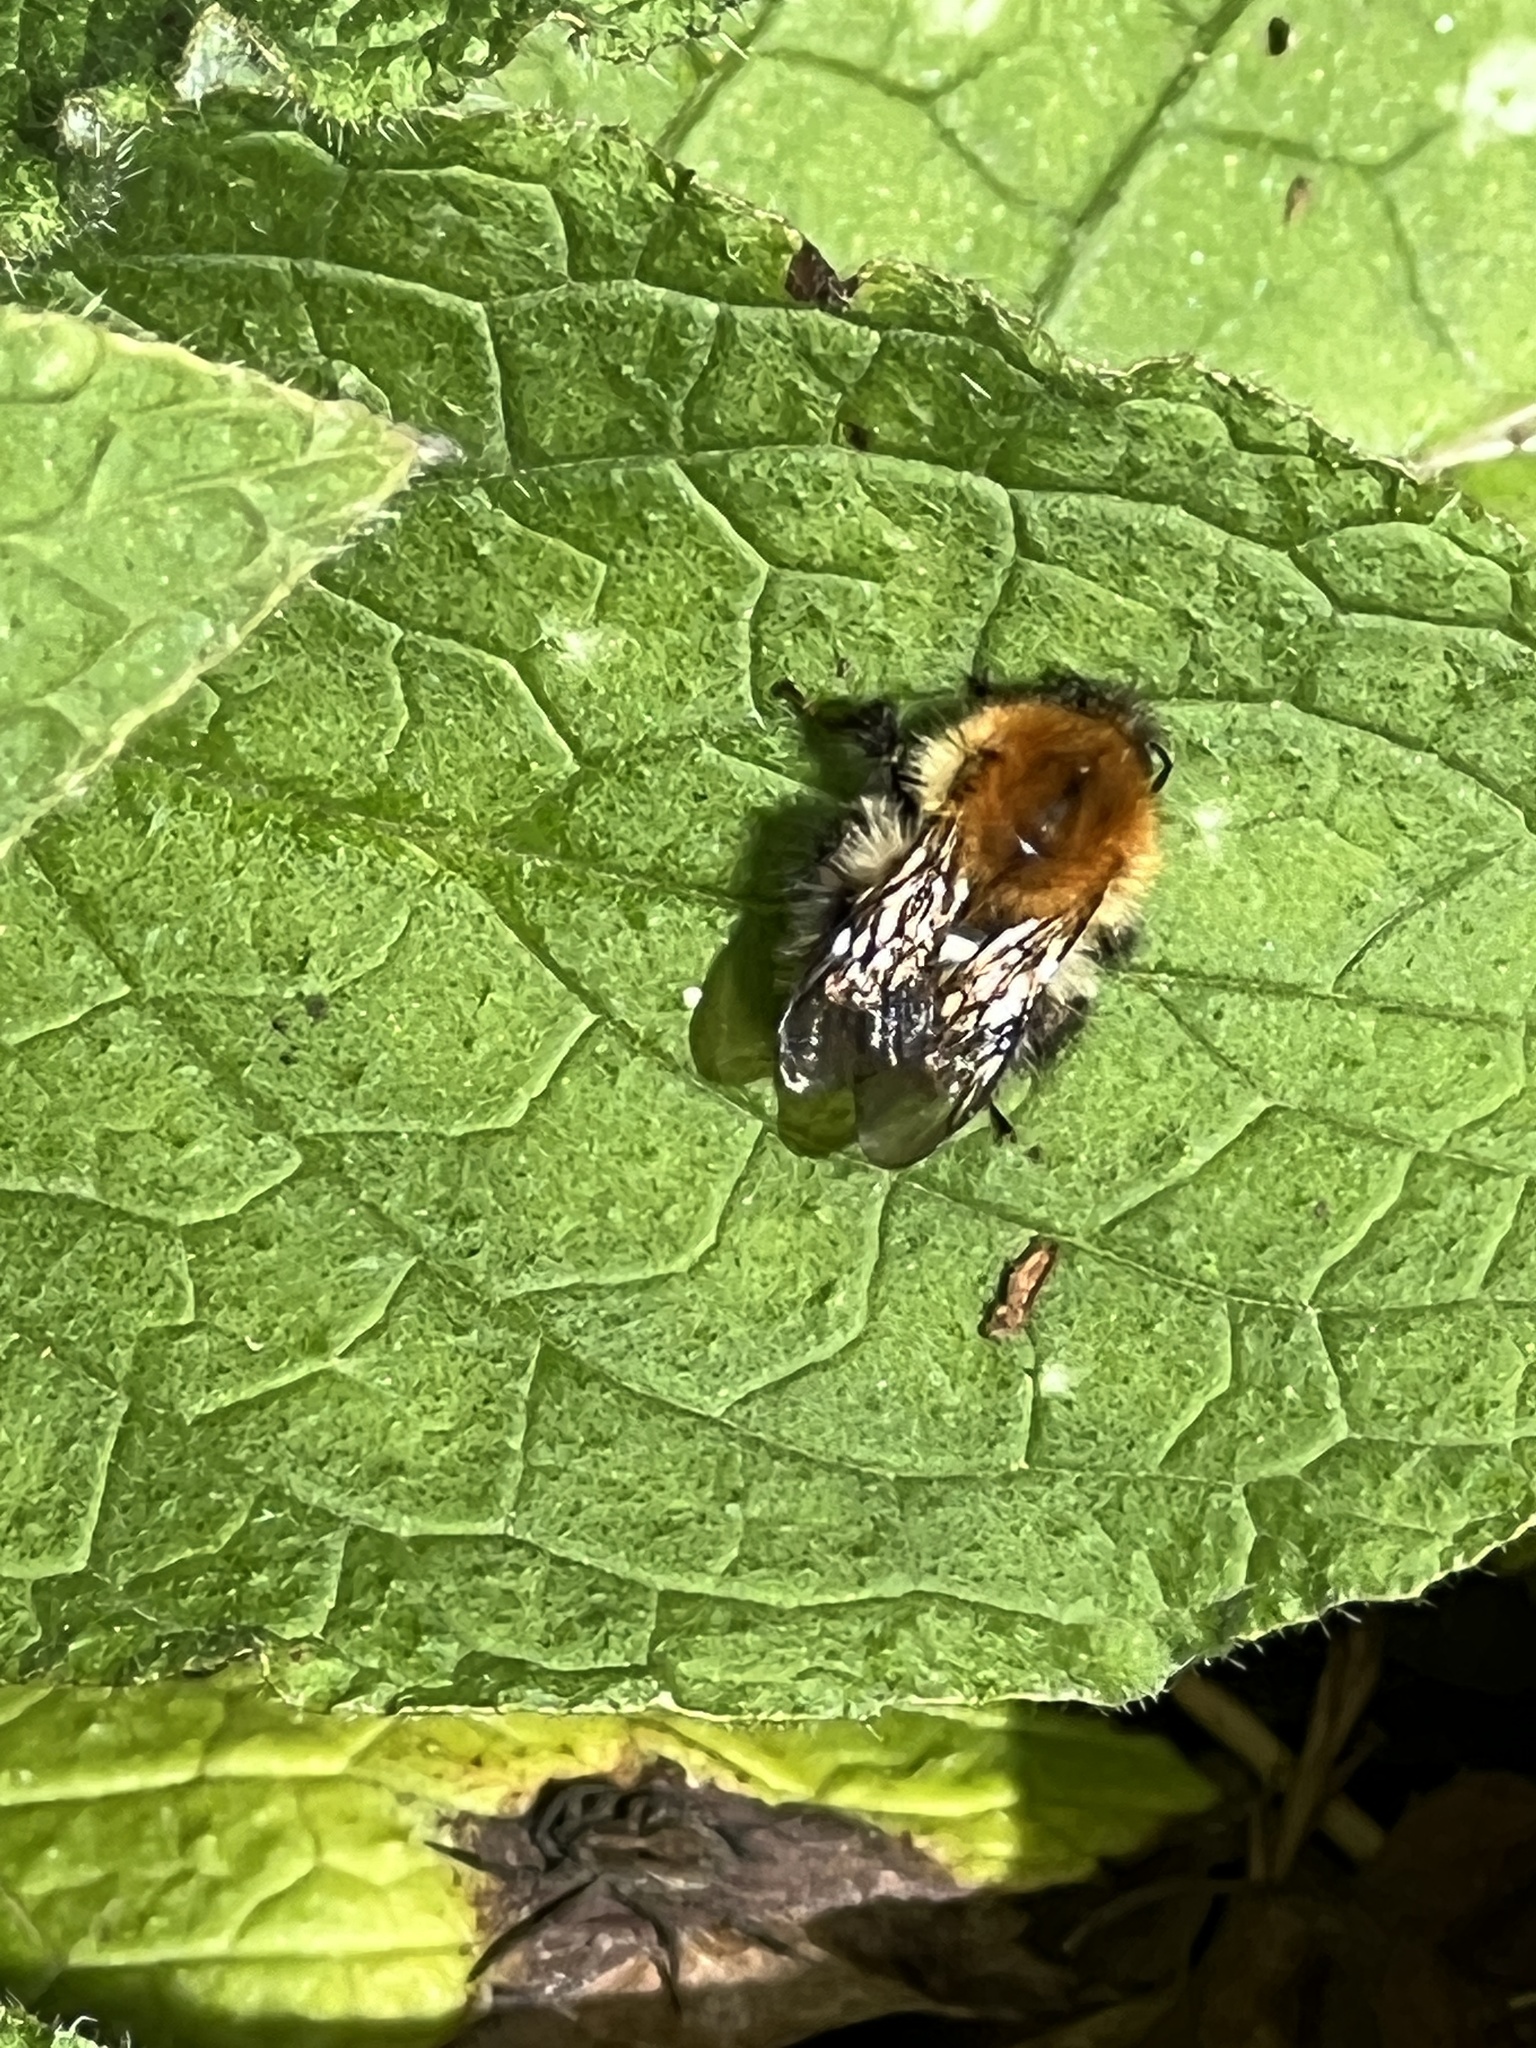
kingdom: Animalia
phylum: Arthropoda
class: Insecta
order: Hymenoptera
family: Apidae
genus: Bombus
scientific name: Bombus pascuorum
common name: Common carder bee
